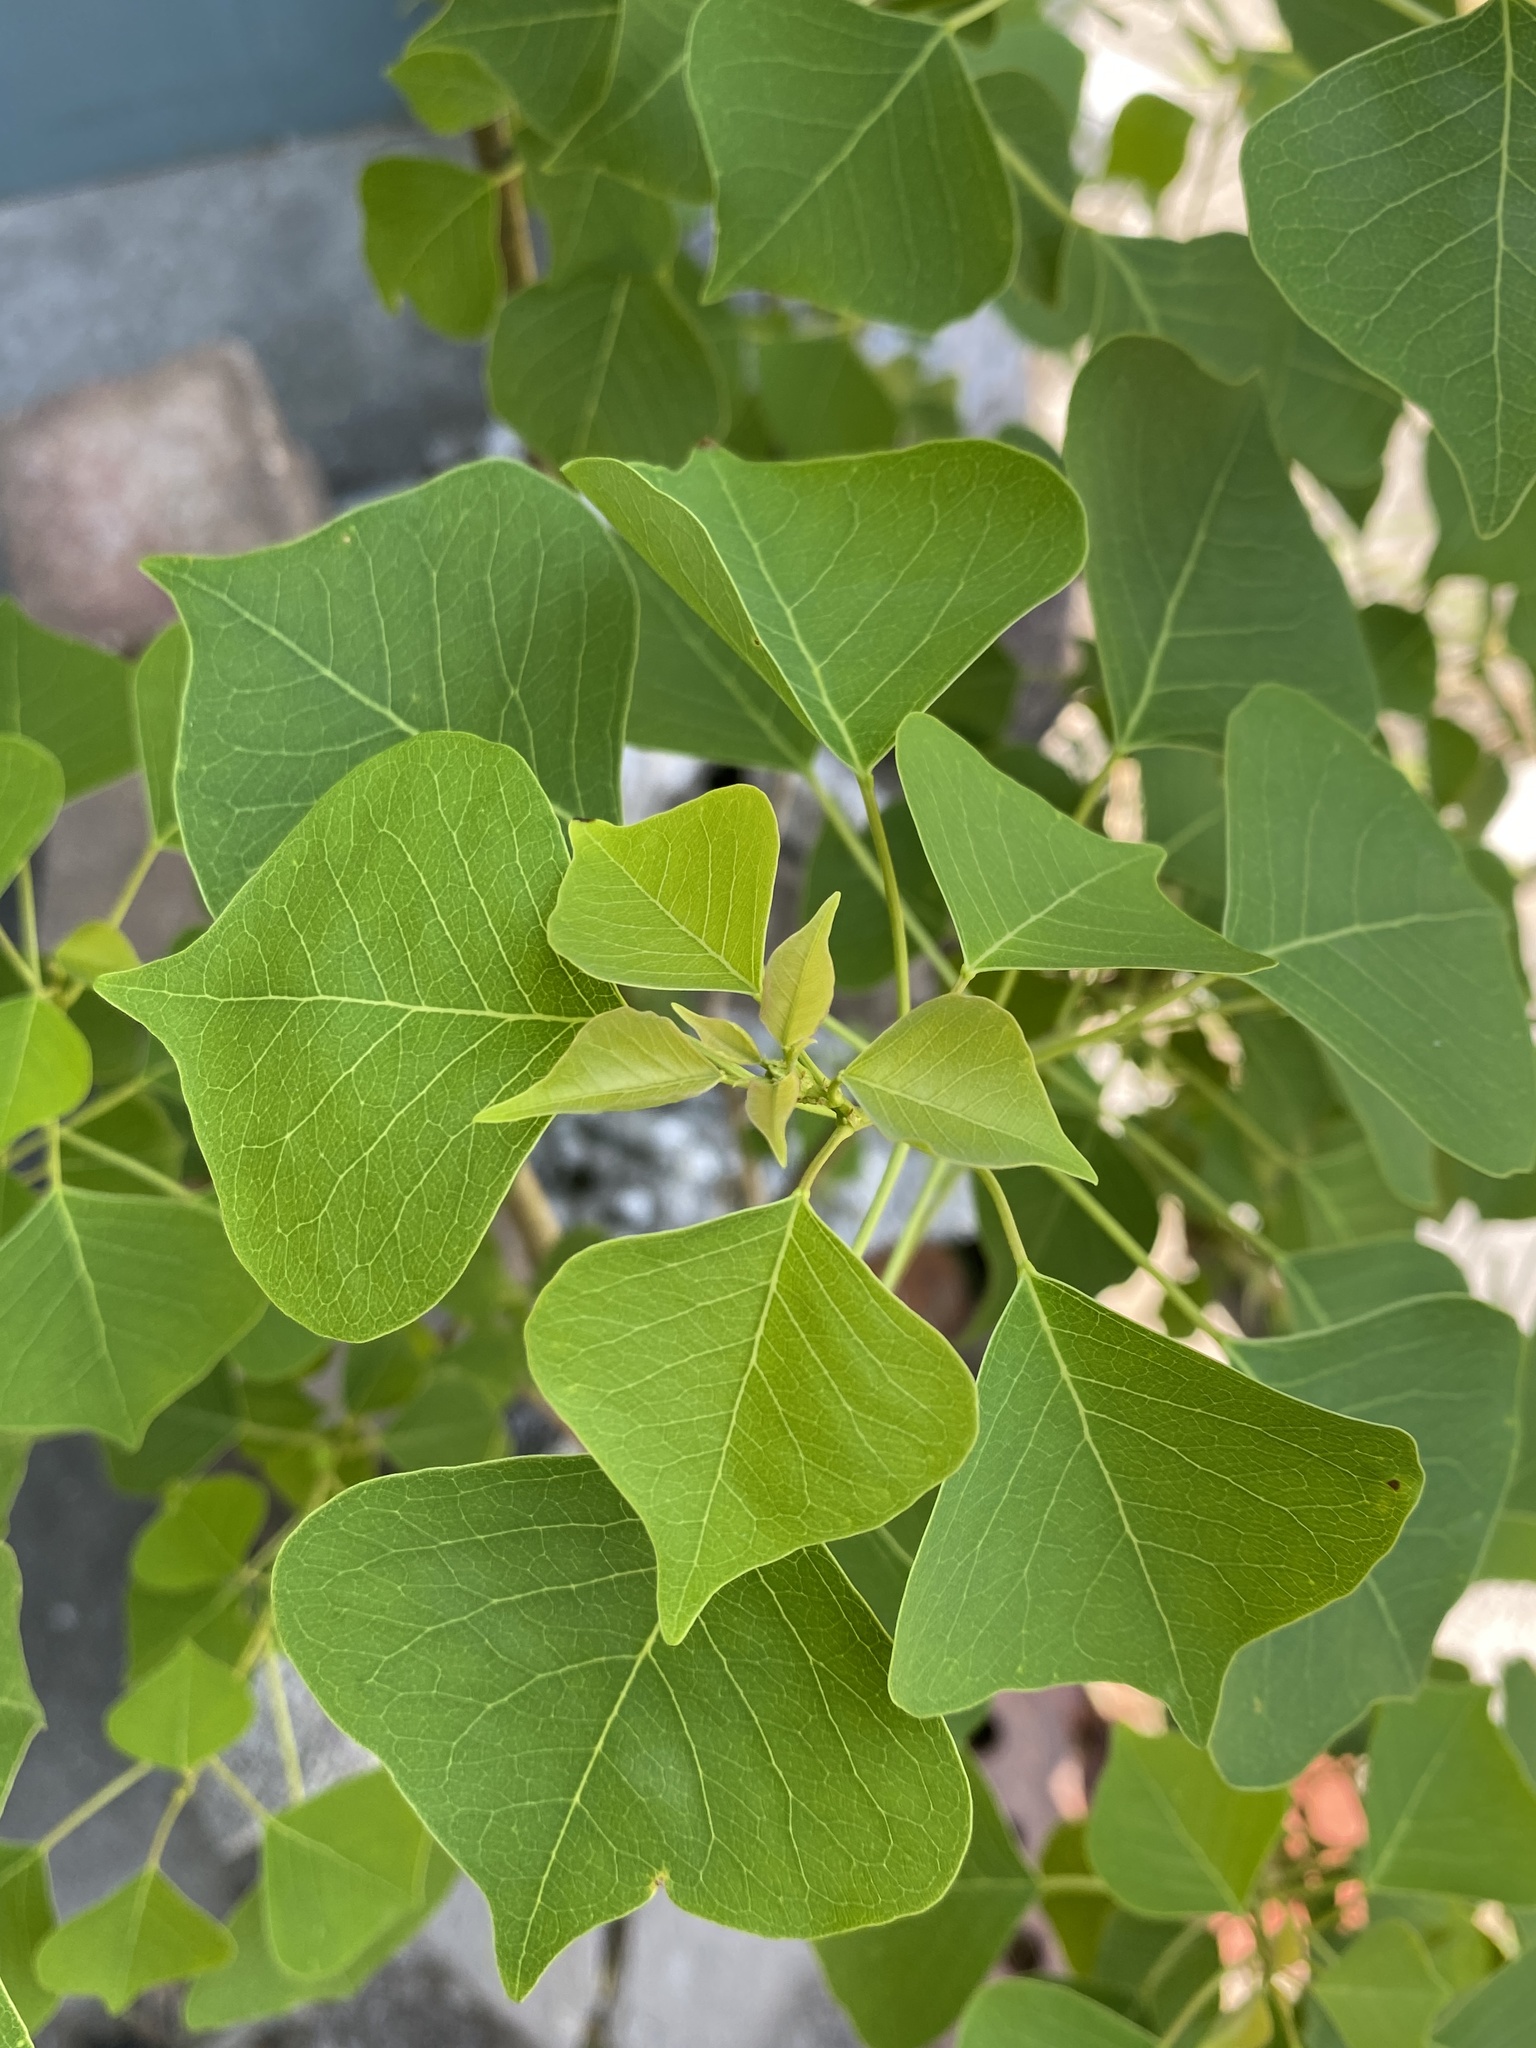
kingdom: Plantae
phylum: Tracheophyta
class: Magnoliopsida
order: Malpighiales
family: Euphorbiaceae
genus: Triadica
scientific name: Triadica sebifera
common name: Chinese tallow
